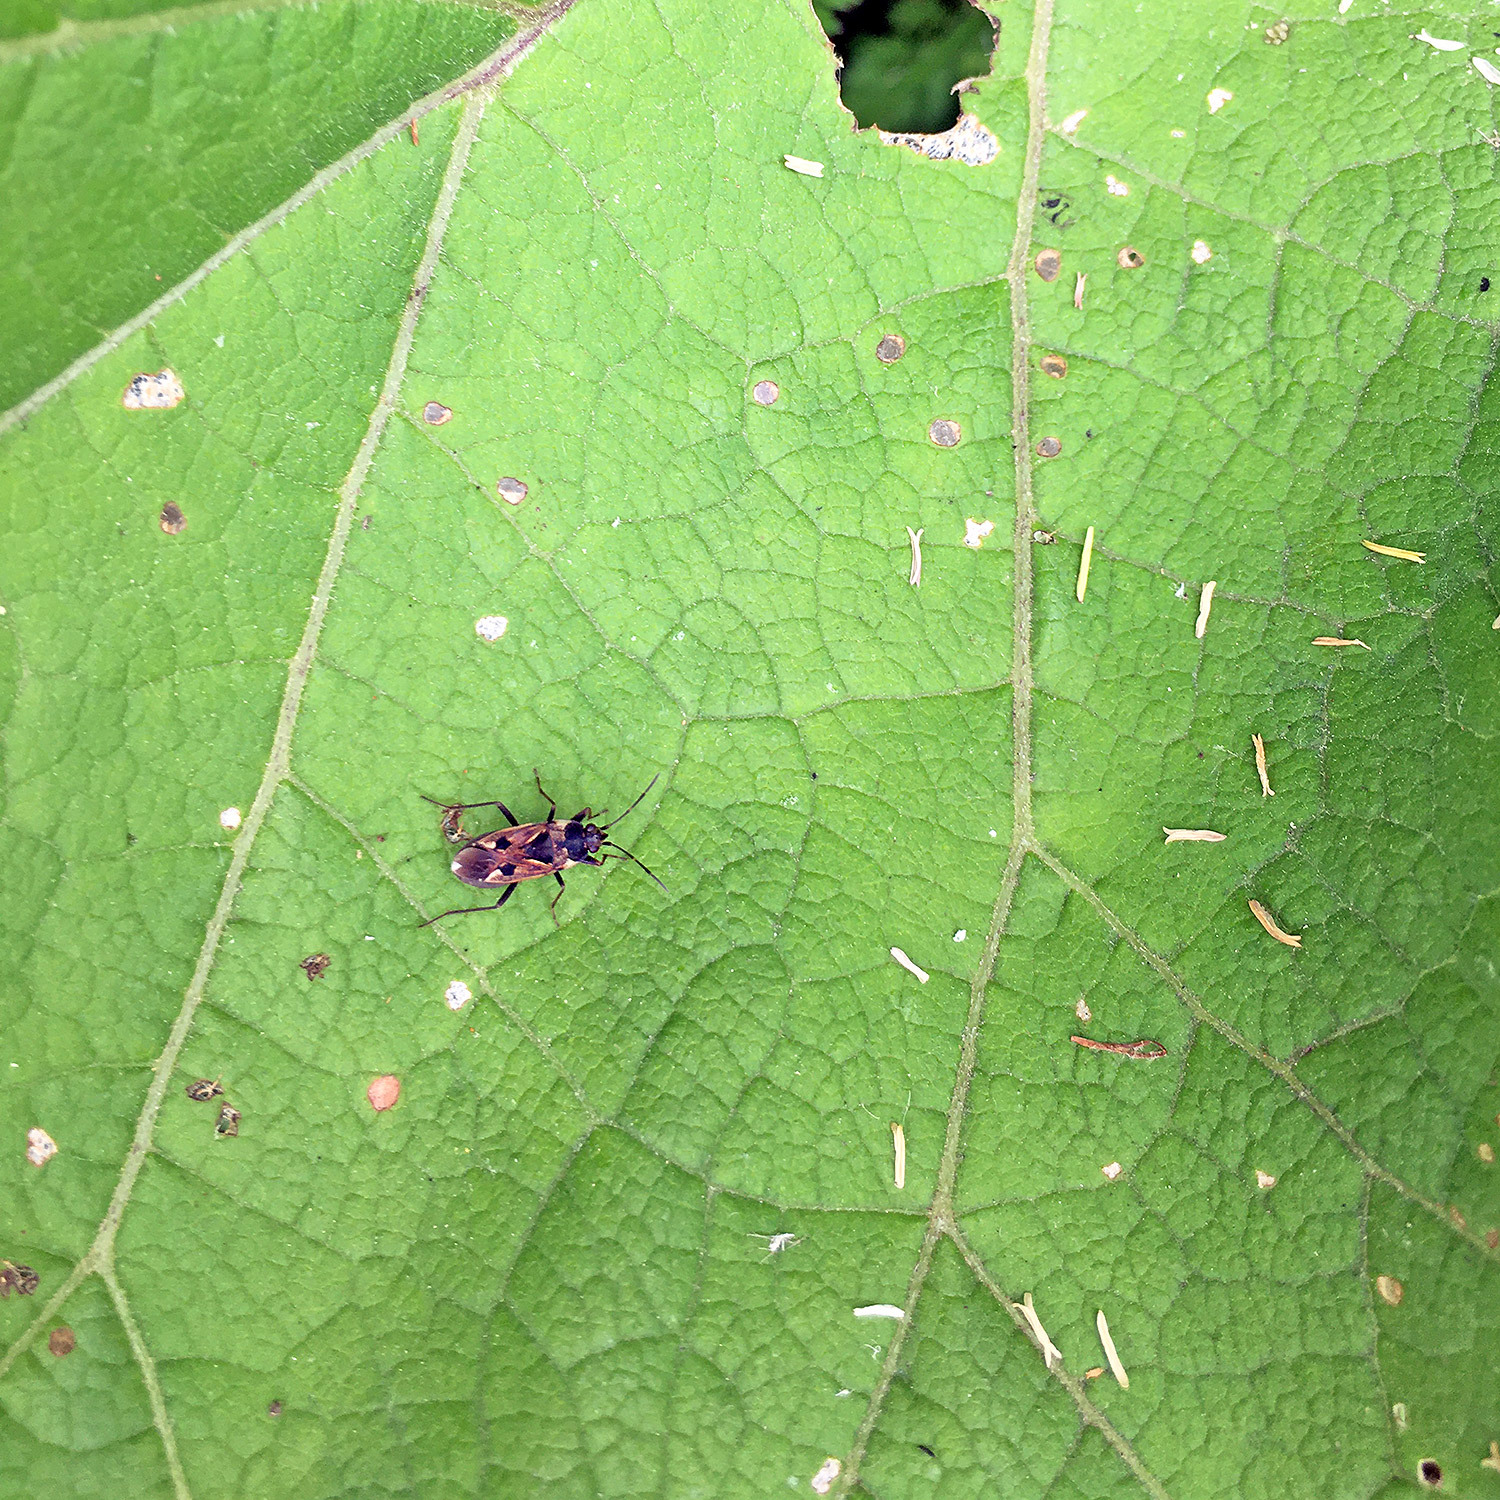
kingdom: Animalia
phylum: Arthropoda
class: Insecta
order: Hemiptera
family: Rhyparochromidae
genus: Rhyparochromus
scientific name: Rhyparochromus vulgaris
